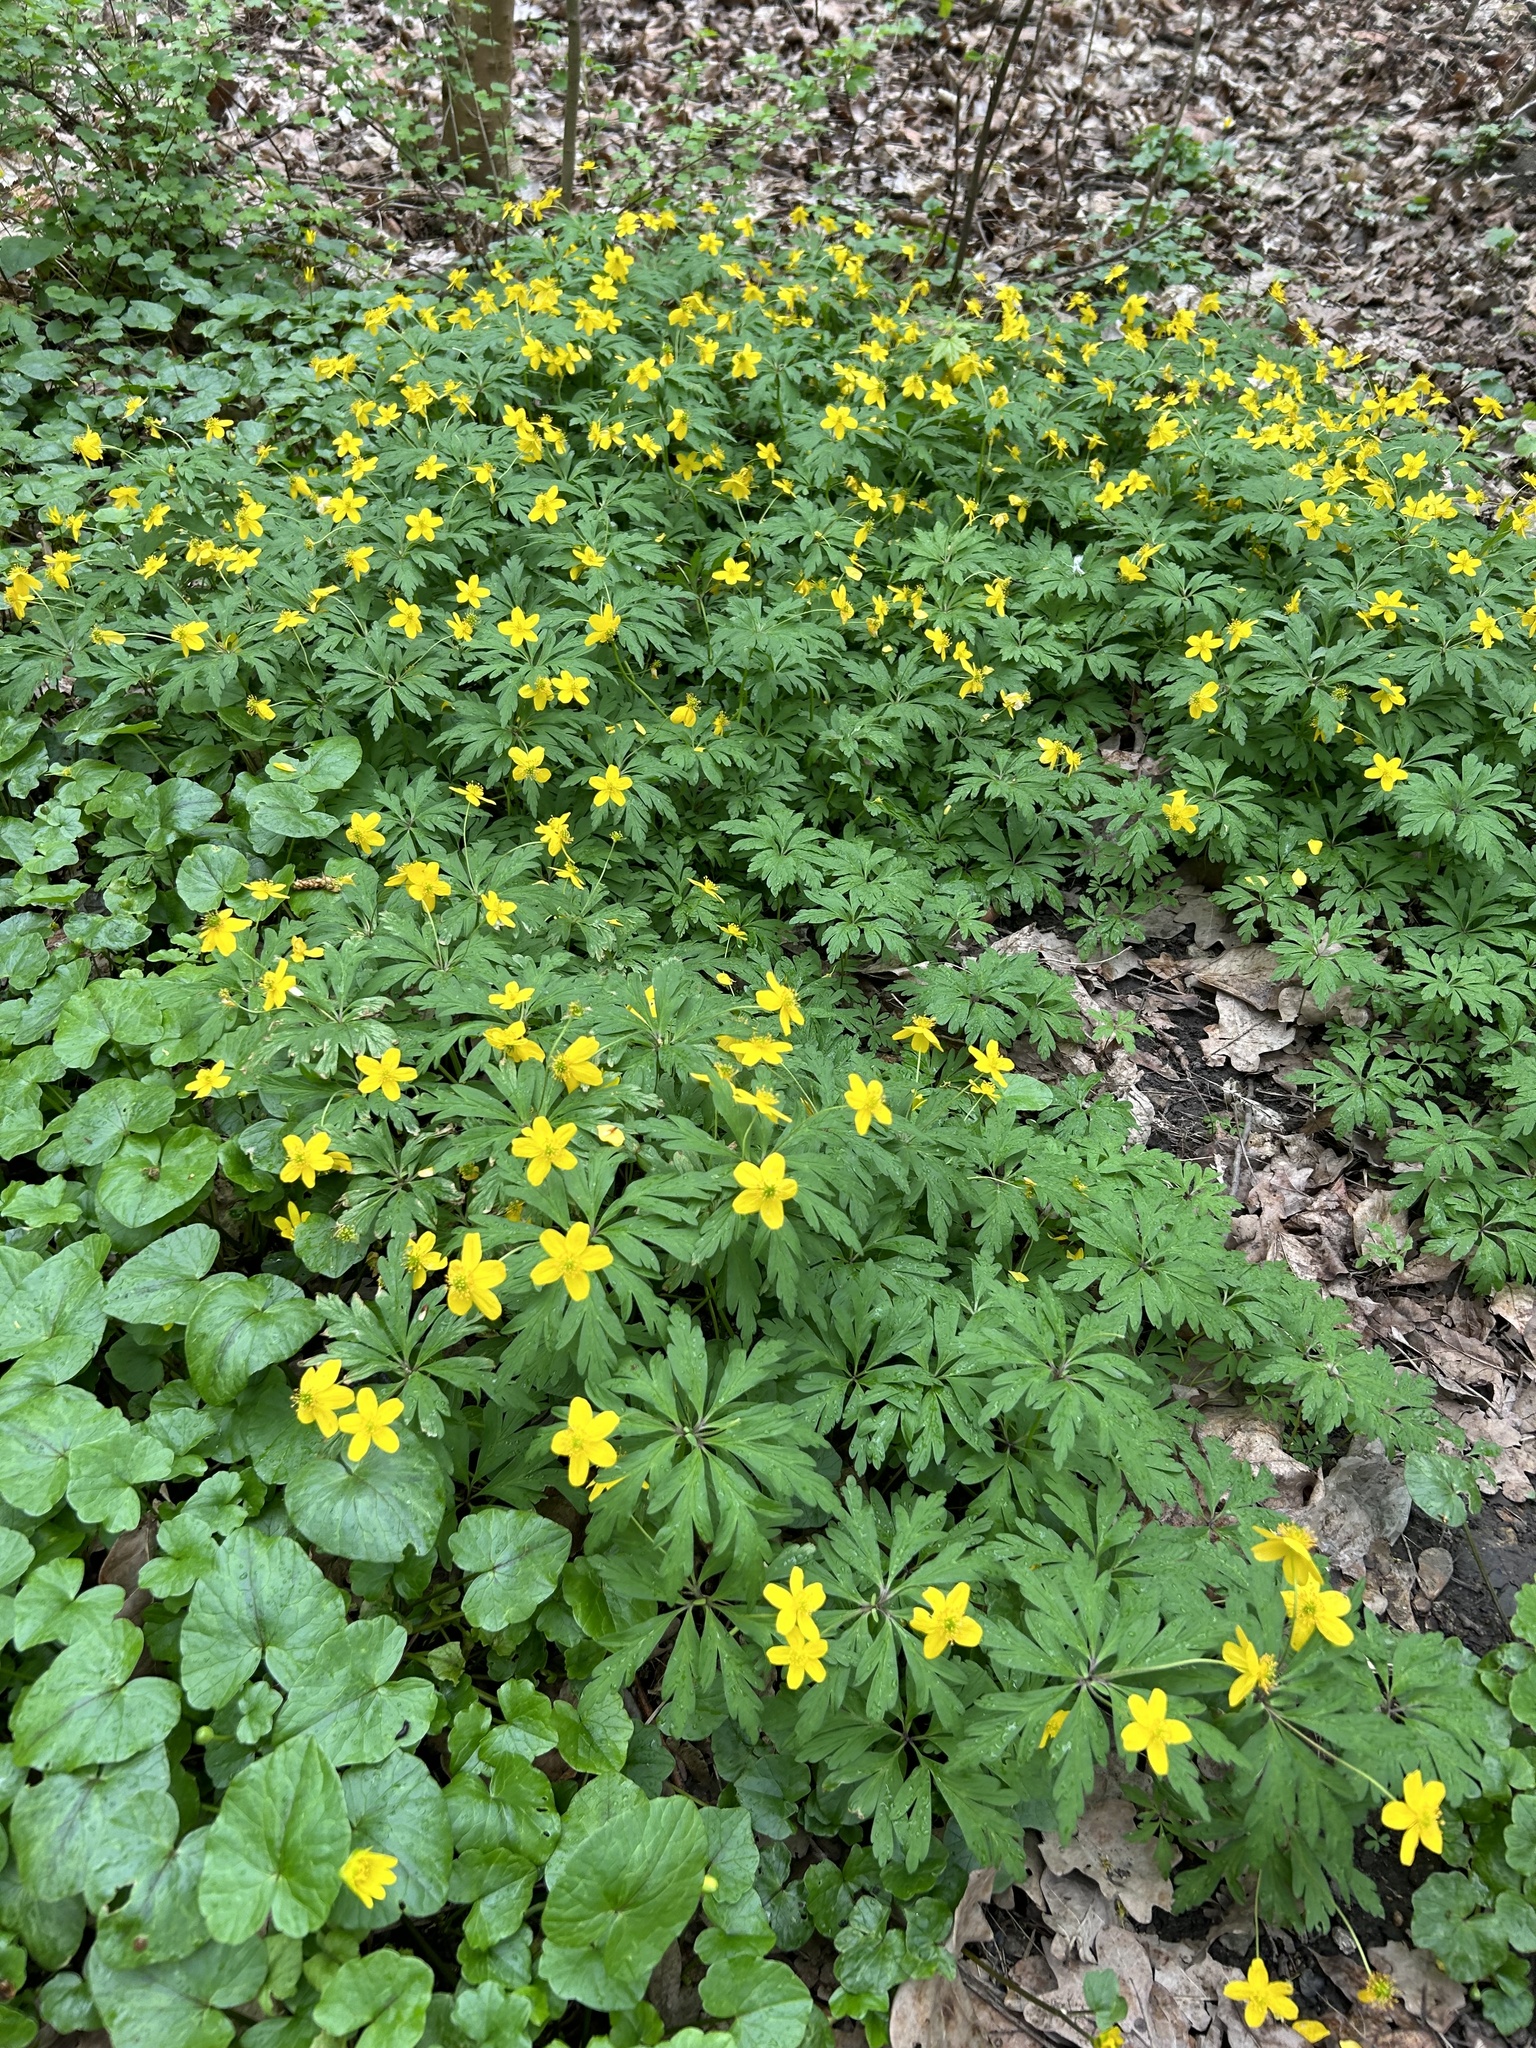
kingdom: Plantae
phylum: Tracheophyta
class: Magnoliopsida
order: Ranunculales
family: Ranunculaceae
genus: Anemone
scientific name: Anemone ranunculoides
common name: Yellow anemone
